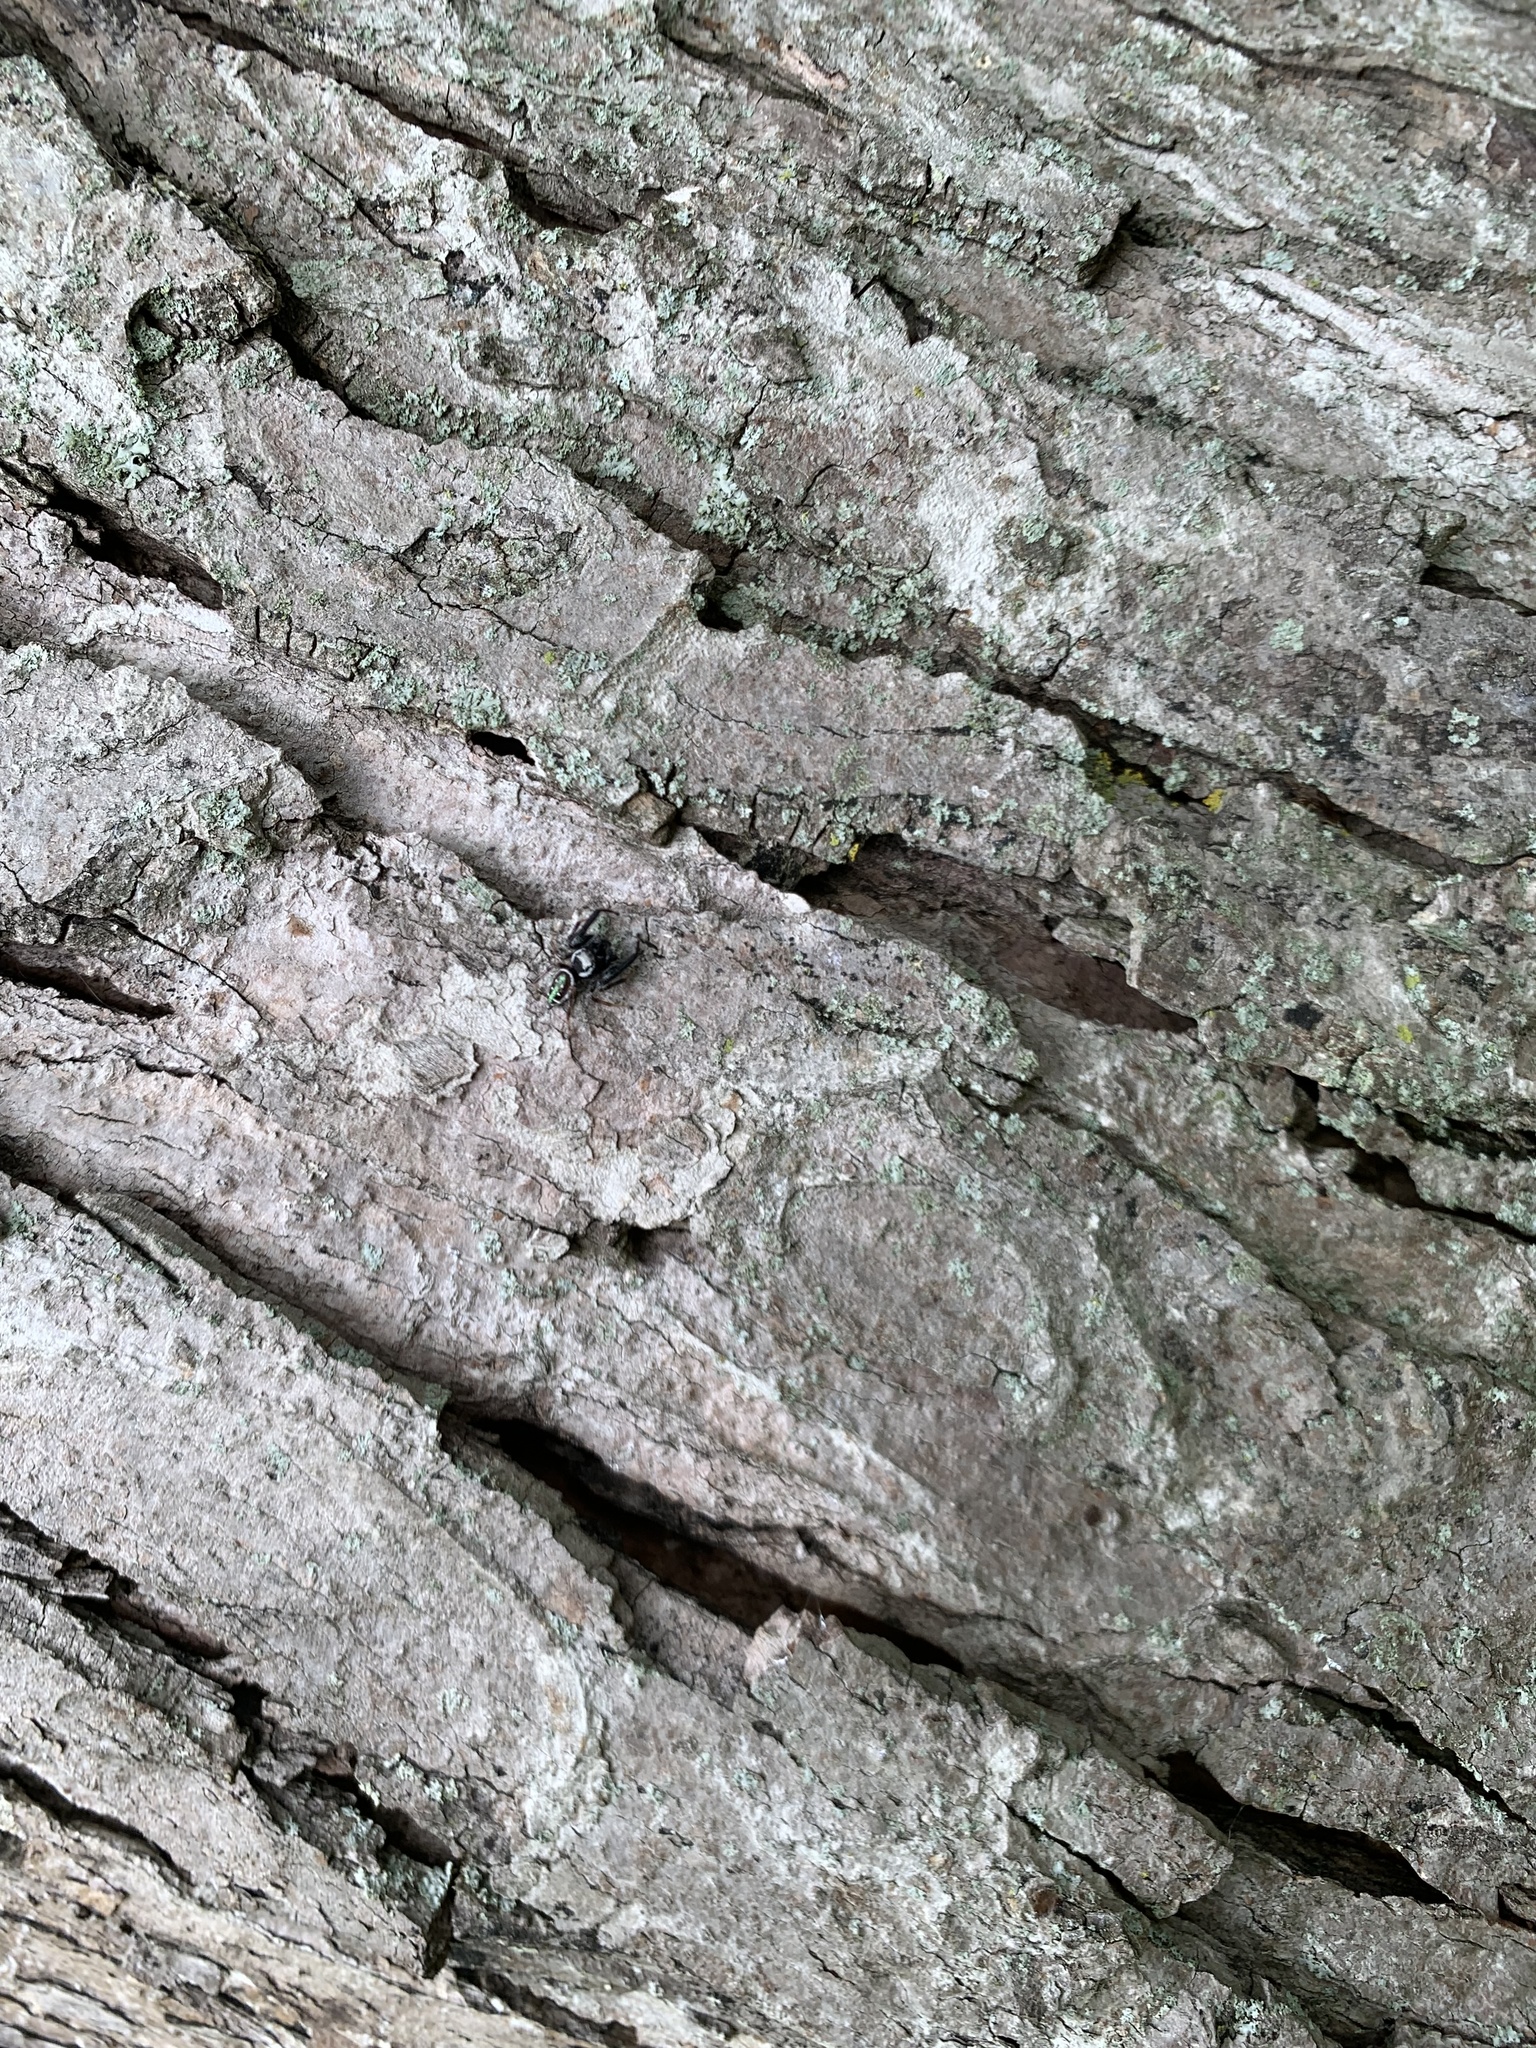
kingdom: Animalia
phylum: Arthropoda
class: Arachnida
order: Araneae
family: Salticidae
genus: Paraphidippus
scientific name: Paraphidippus aurantius
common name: Jumping spiders
